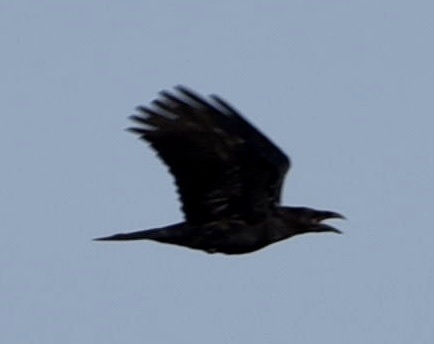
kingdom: Animalia
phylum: Chordata
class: Aves
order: Passeriformes
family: Corvidae
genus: Corvus
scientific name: Corvus corax
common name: Common raven
